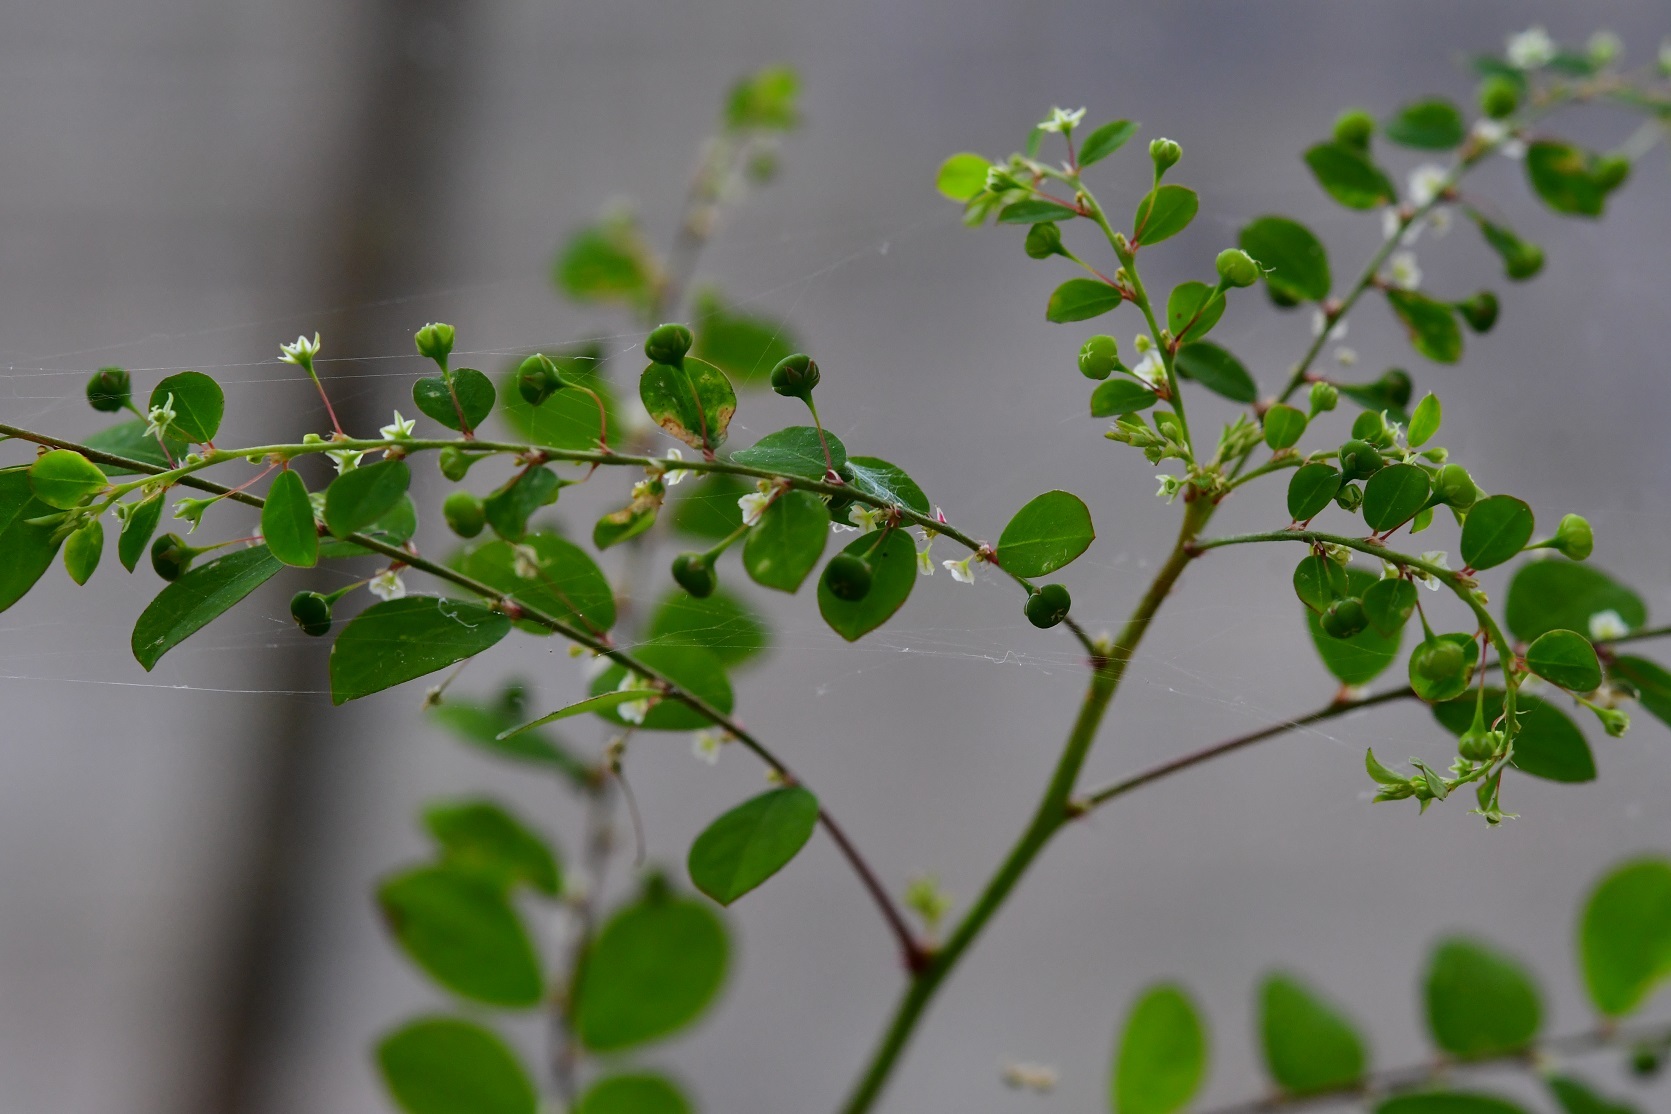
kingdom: Plantae
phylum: Tracheophyta
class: Magnoliopsida
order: Malpighiales
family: Phyllanthaceae
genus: Phyllanthus
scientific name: Phyllanthus tenellus
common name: Mascarene island leaf-flower
